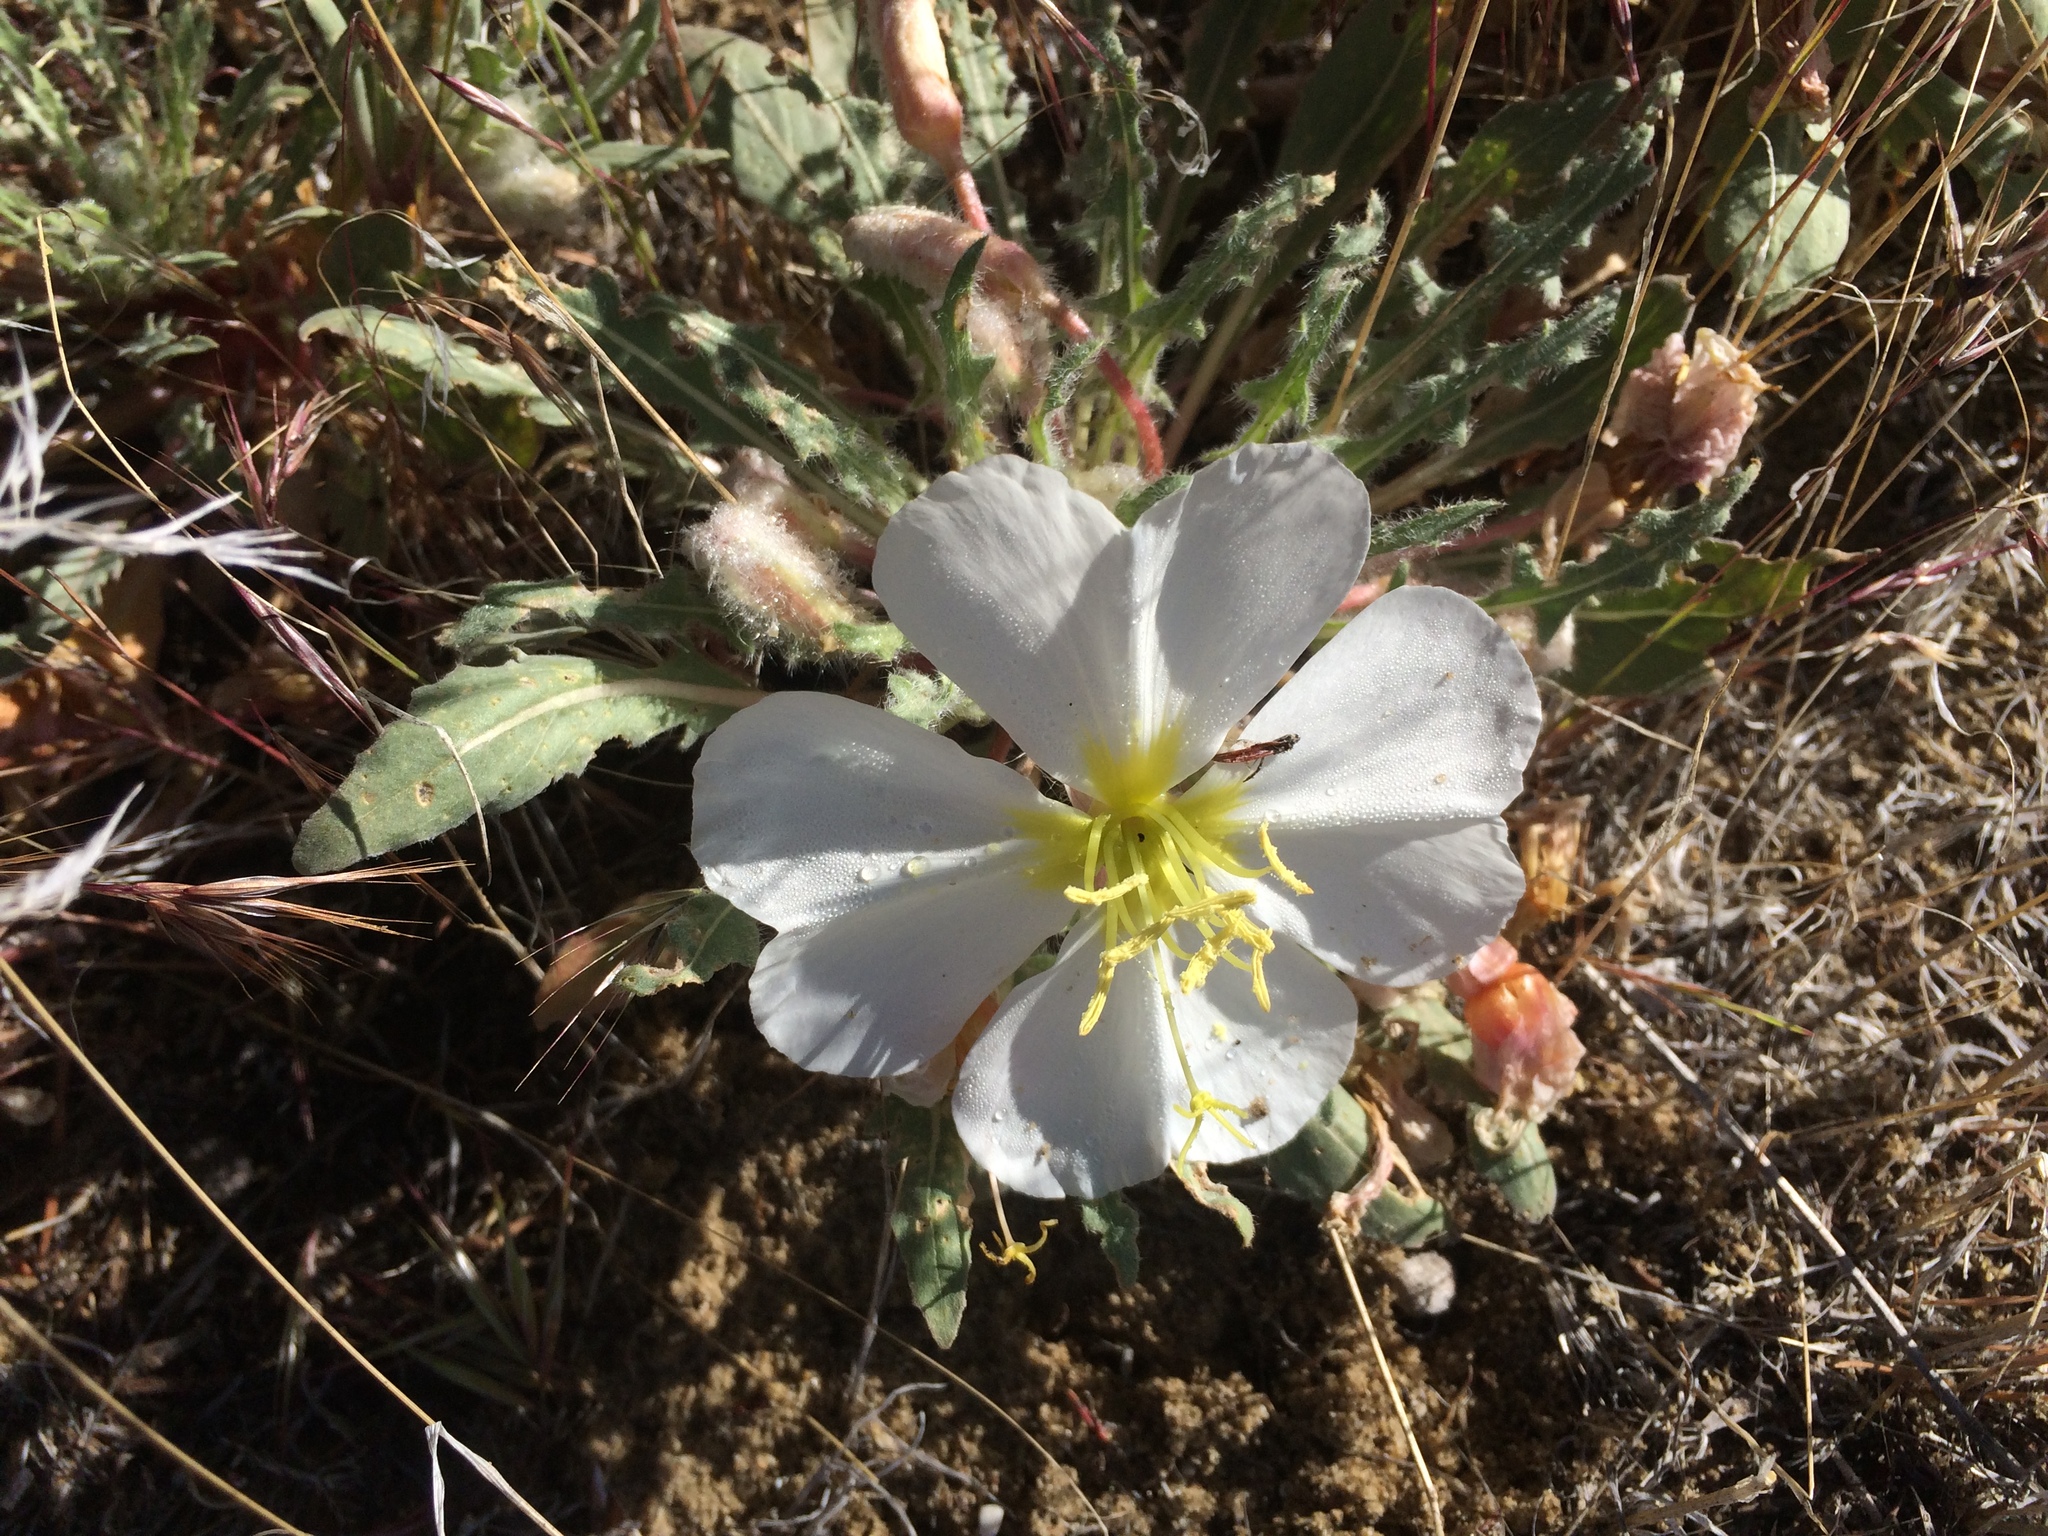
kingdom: Plantae
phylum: Tracheophyta
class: Magnoliopsida
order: Myrtales
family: Onagraceae
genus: Oenothera
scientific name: Oenothera cespitosa
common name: Tufted evening-primrose
